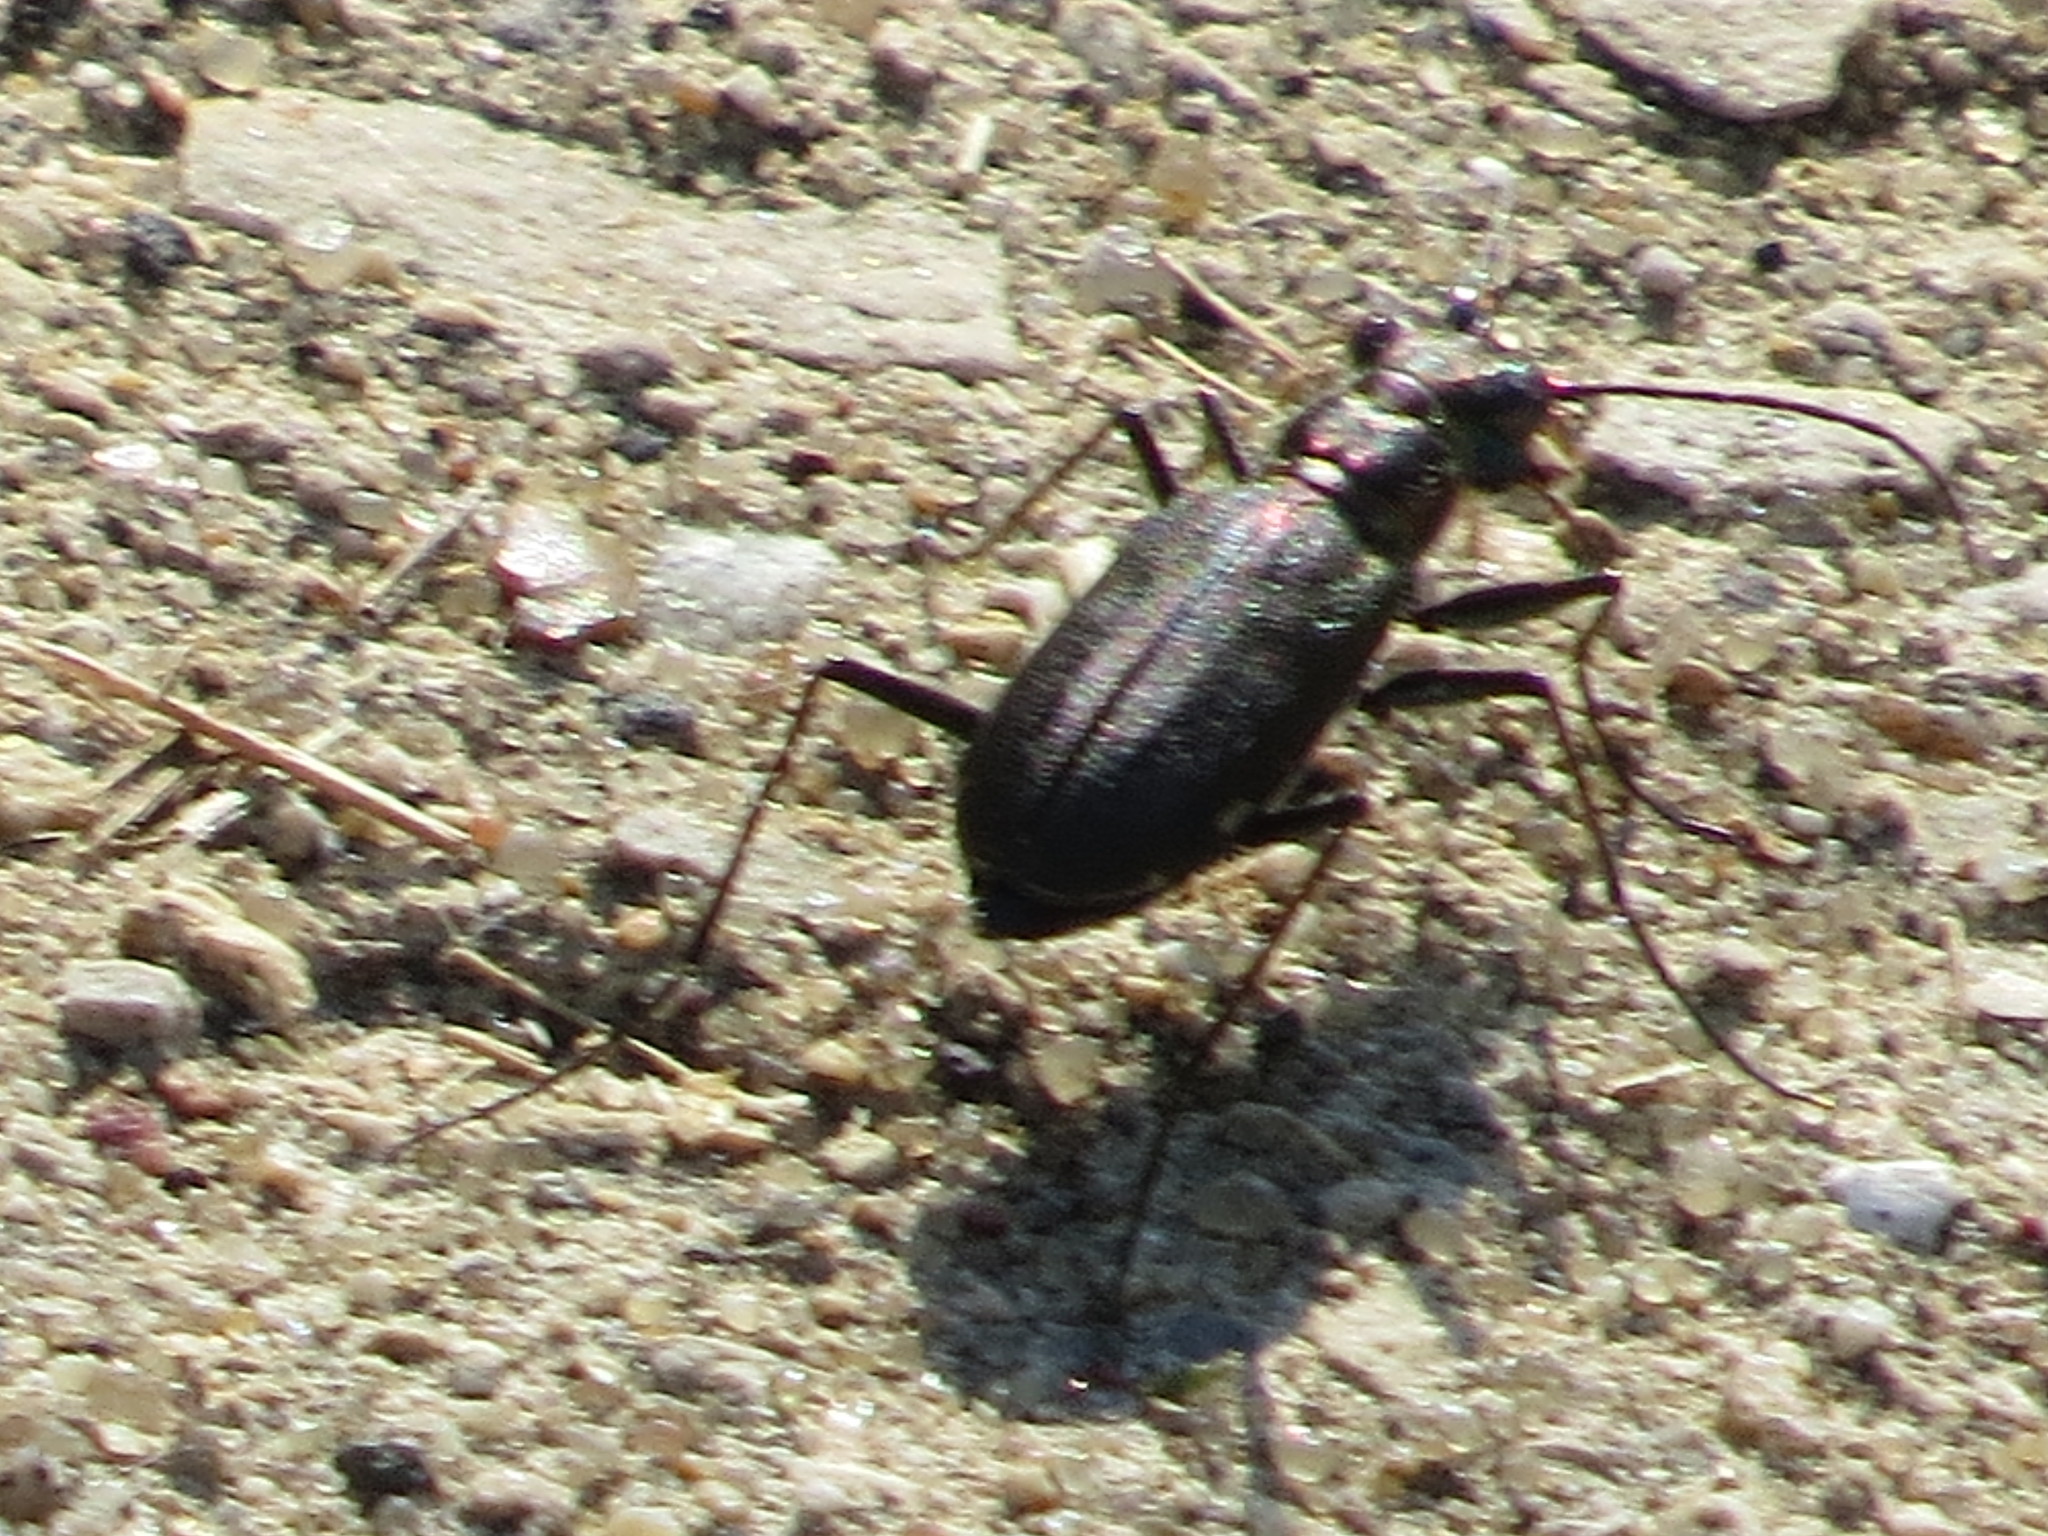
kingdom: Animalia
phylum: Arthropoda
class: Insecta
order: Coleoptera
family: Carabidae
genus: Cicindela
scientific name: Cicindela punctulata
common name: Punctured tiger beetle
